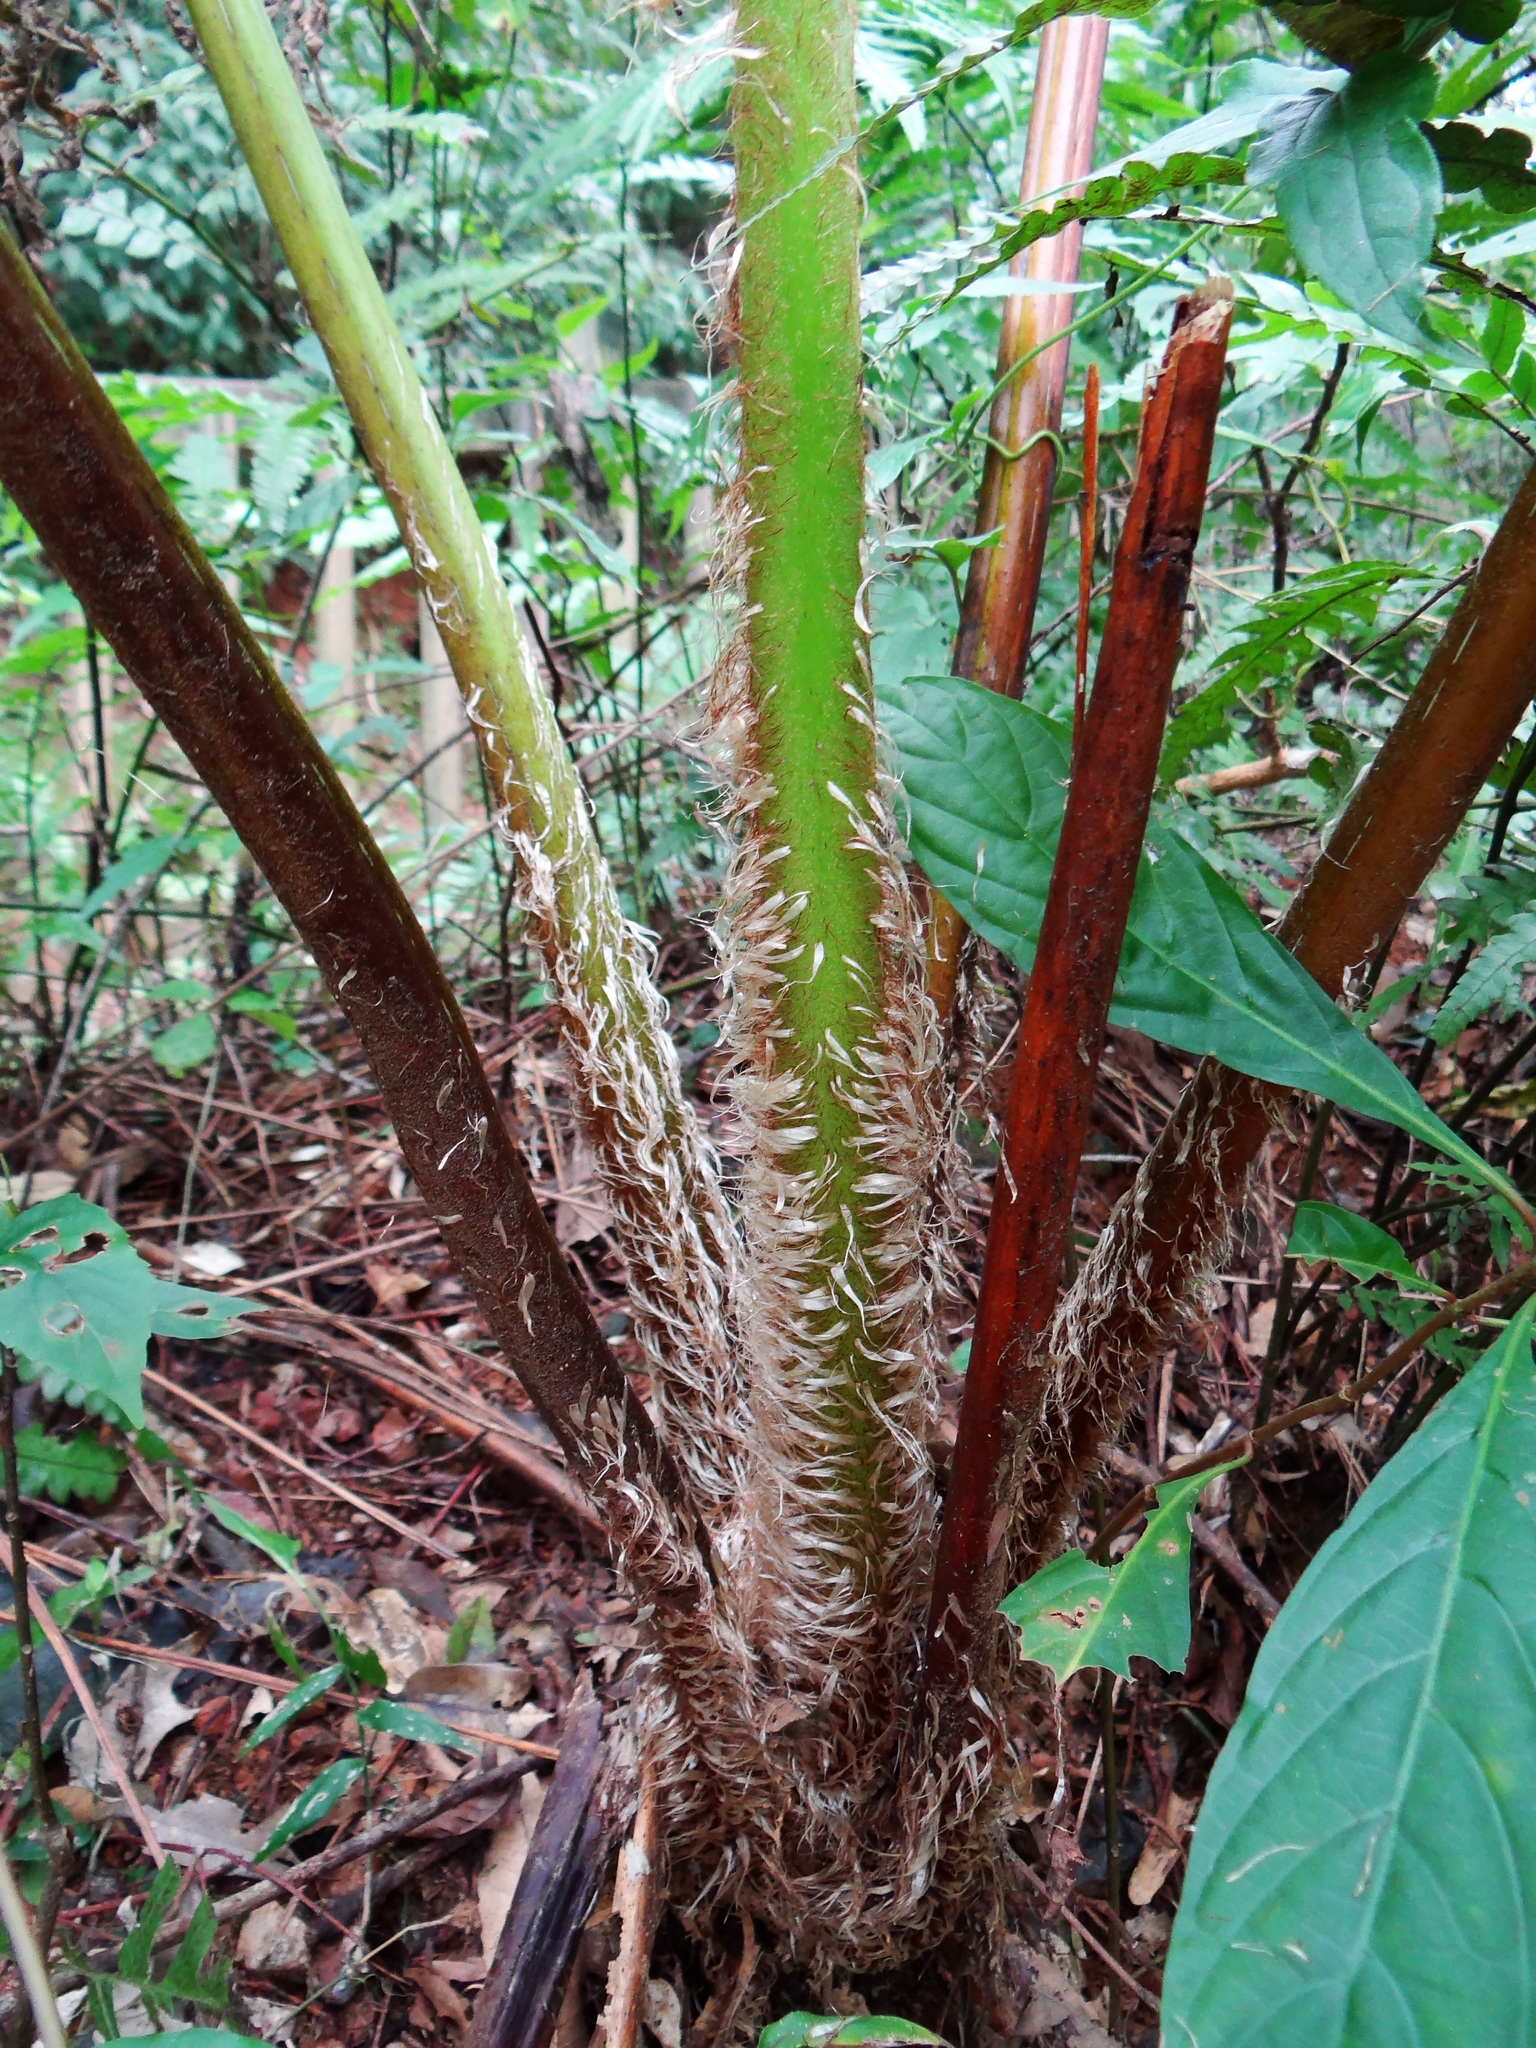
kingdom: Plantae
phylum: Tracheophyta
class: Polypodiopsida
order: Cyatheales
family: Cyatheaceae
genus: Alsophila
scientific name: Alsophila lepifera
